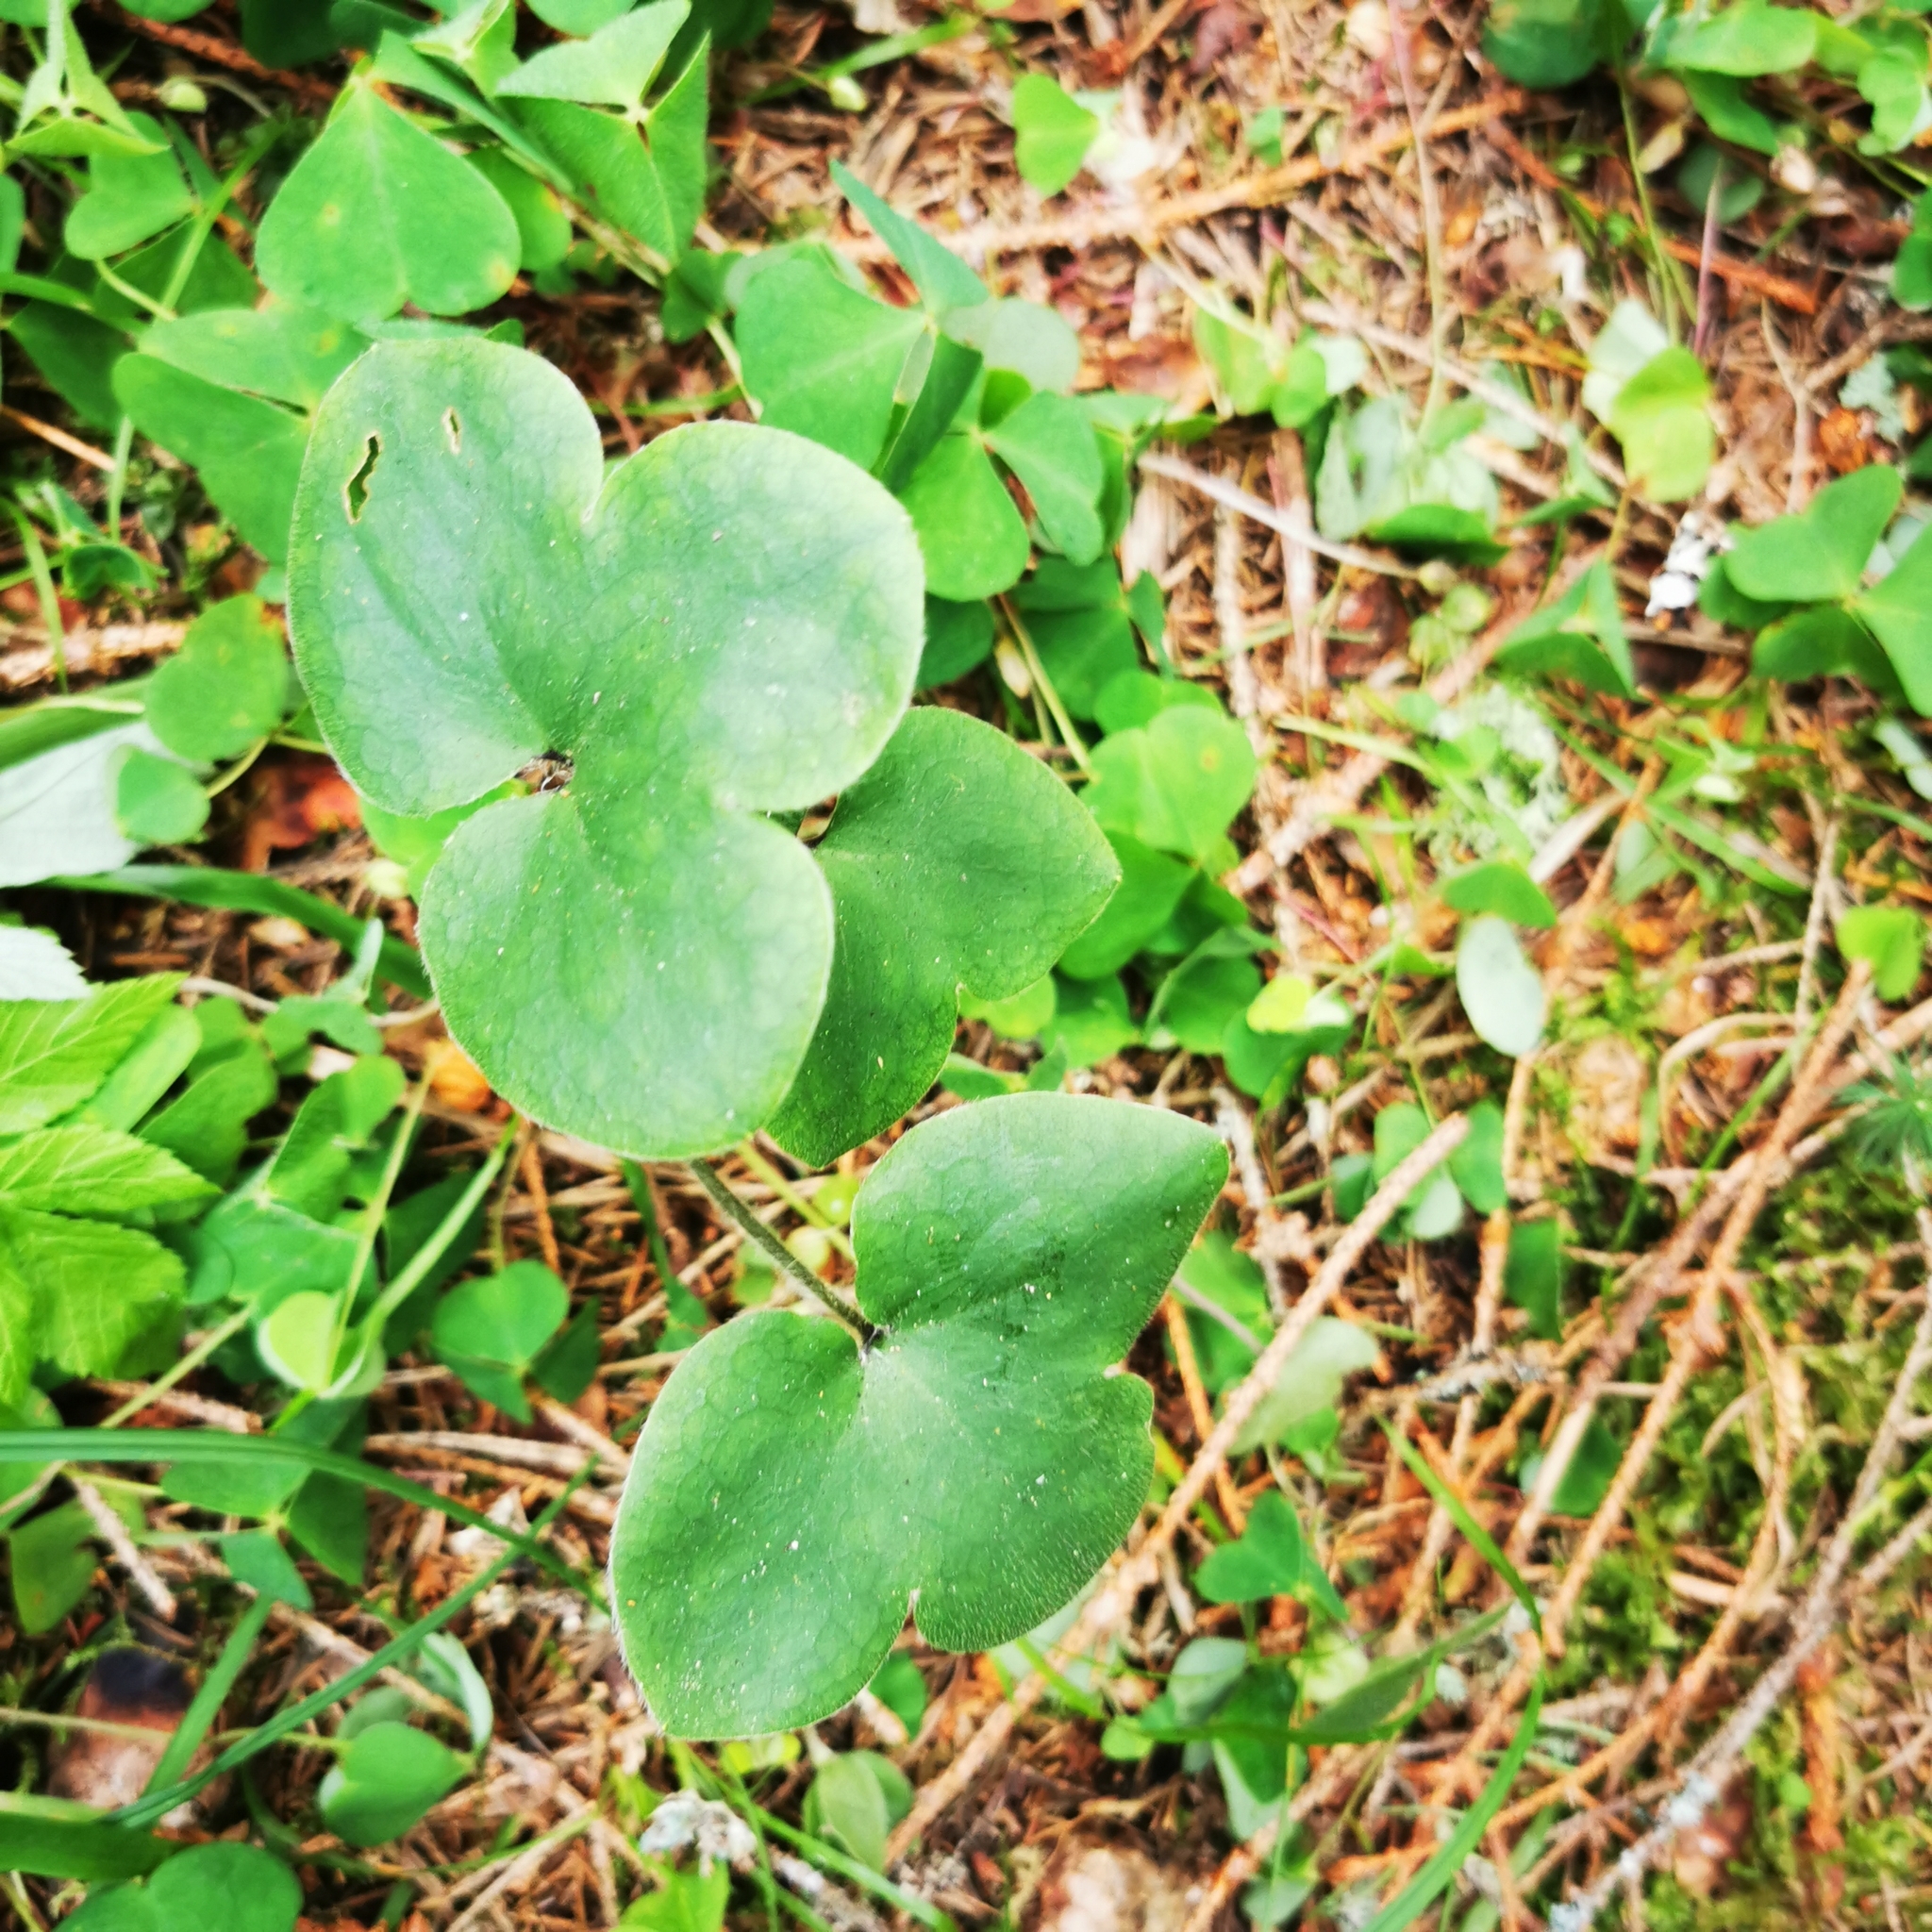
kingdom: Plantae
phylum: Tracheophyta
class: Magnoliopsida
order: Ranunculales
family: Ranunculaceae
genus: Hepatica
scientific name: Hepatica nobilis
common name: Liverleaf
